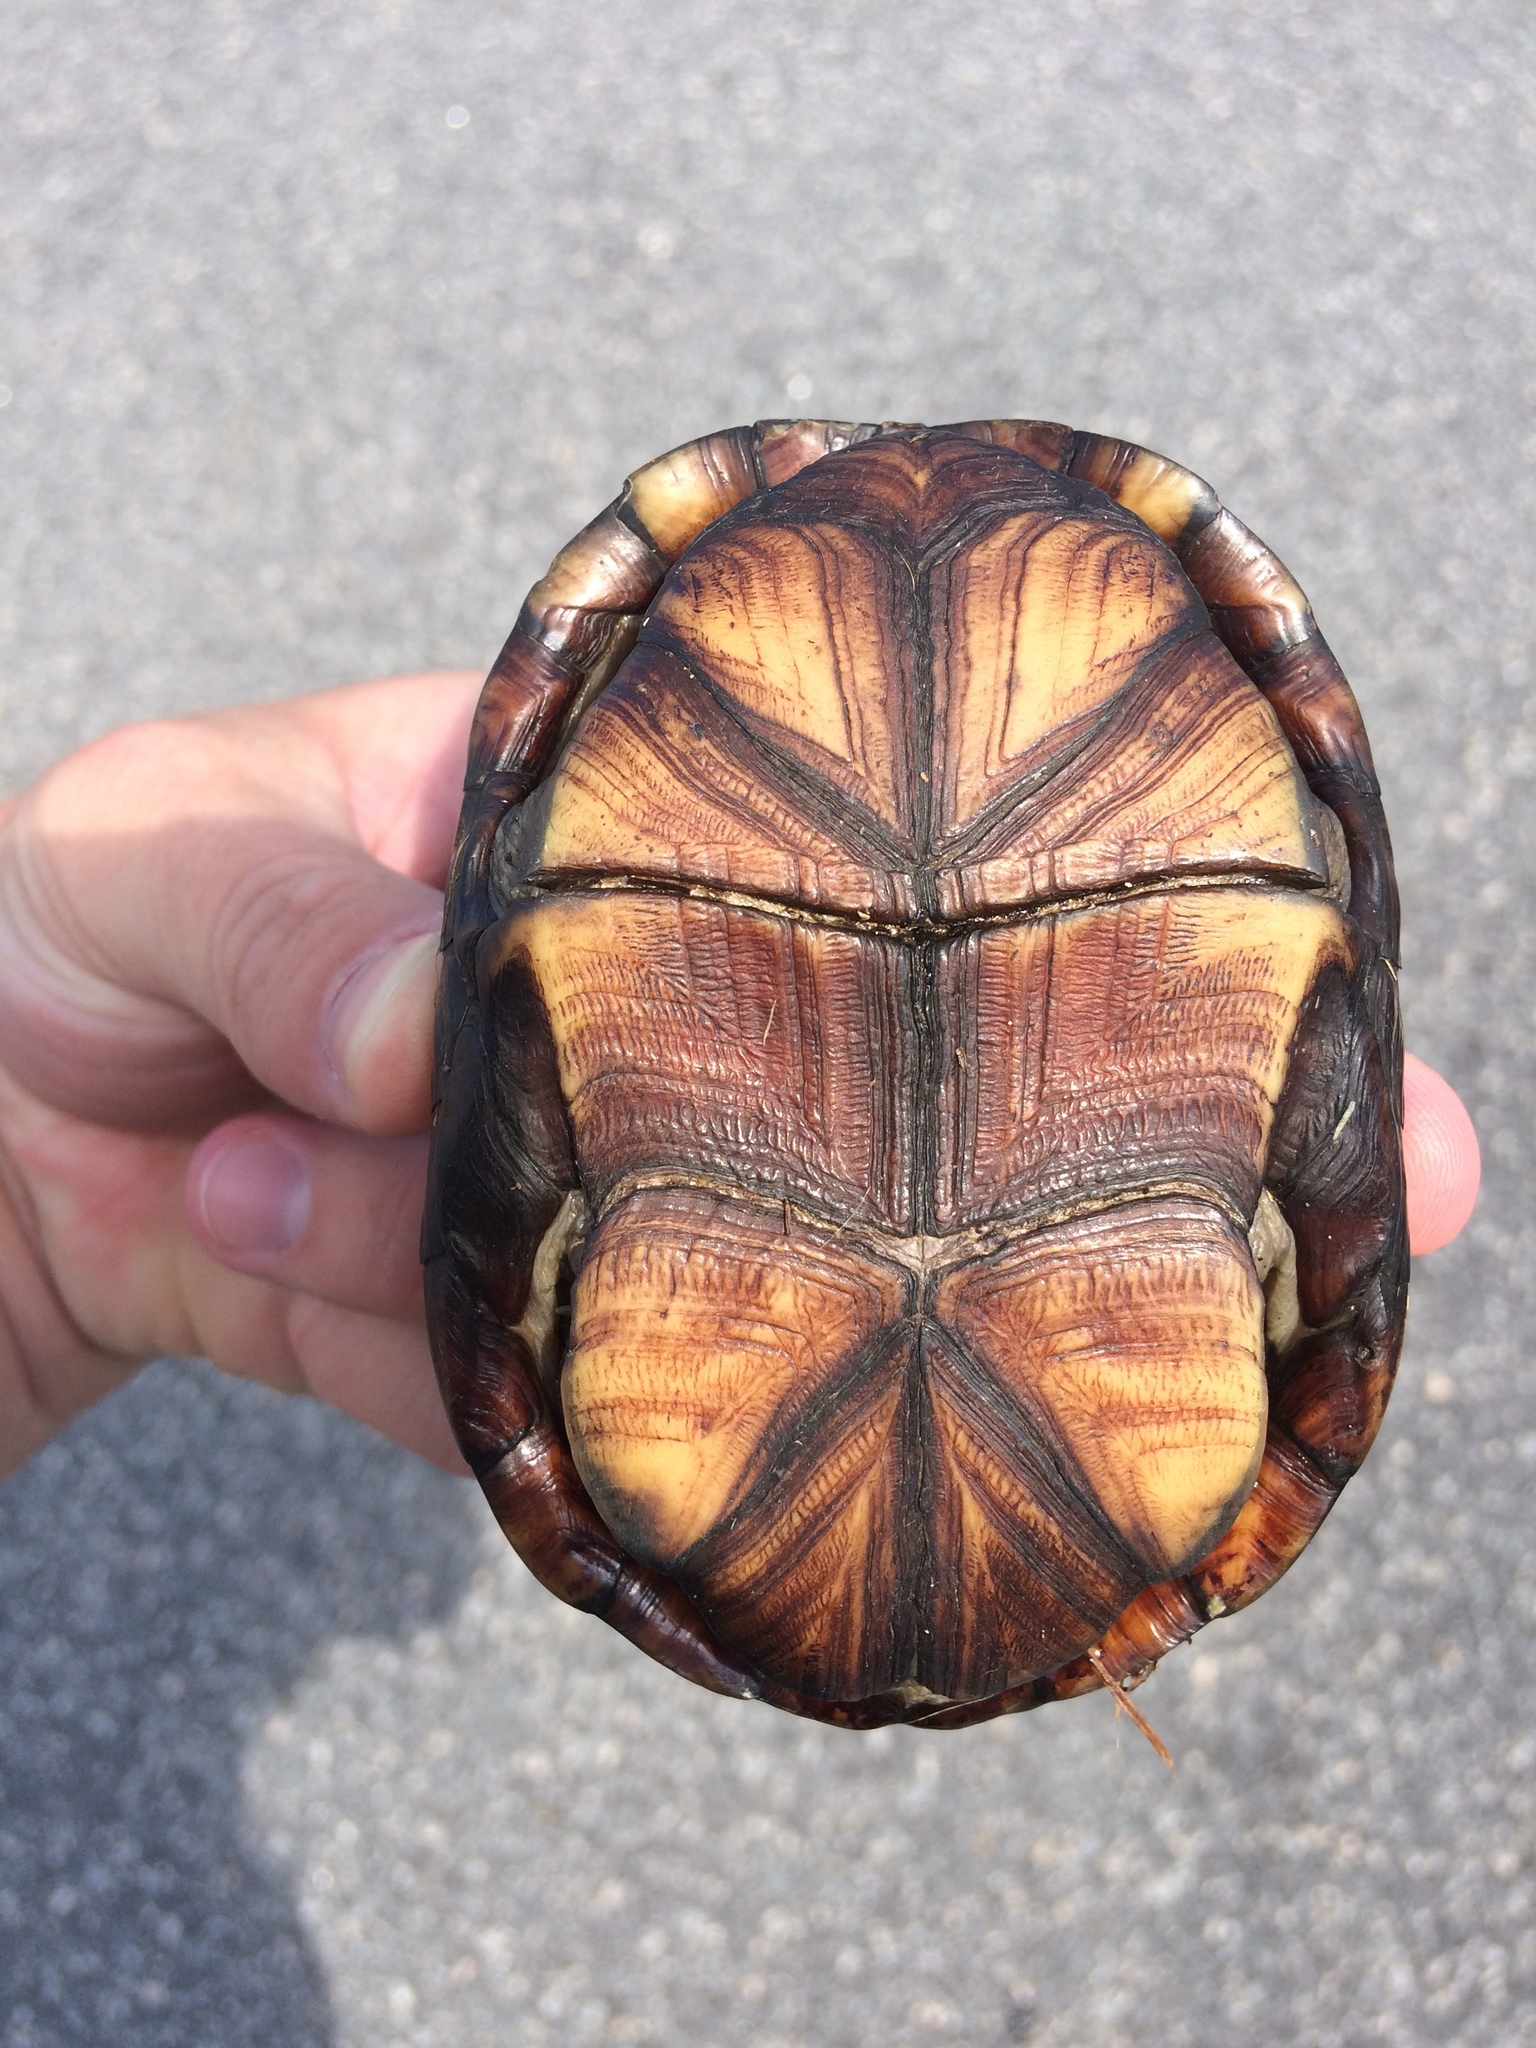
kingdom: Animalia
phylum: Chordata
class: Testudines
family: Kinosternidae
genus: Kinosternon
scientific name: Kinosternon subrubrum
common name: Eastern mud turtle
